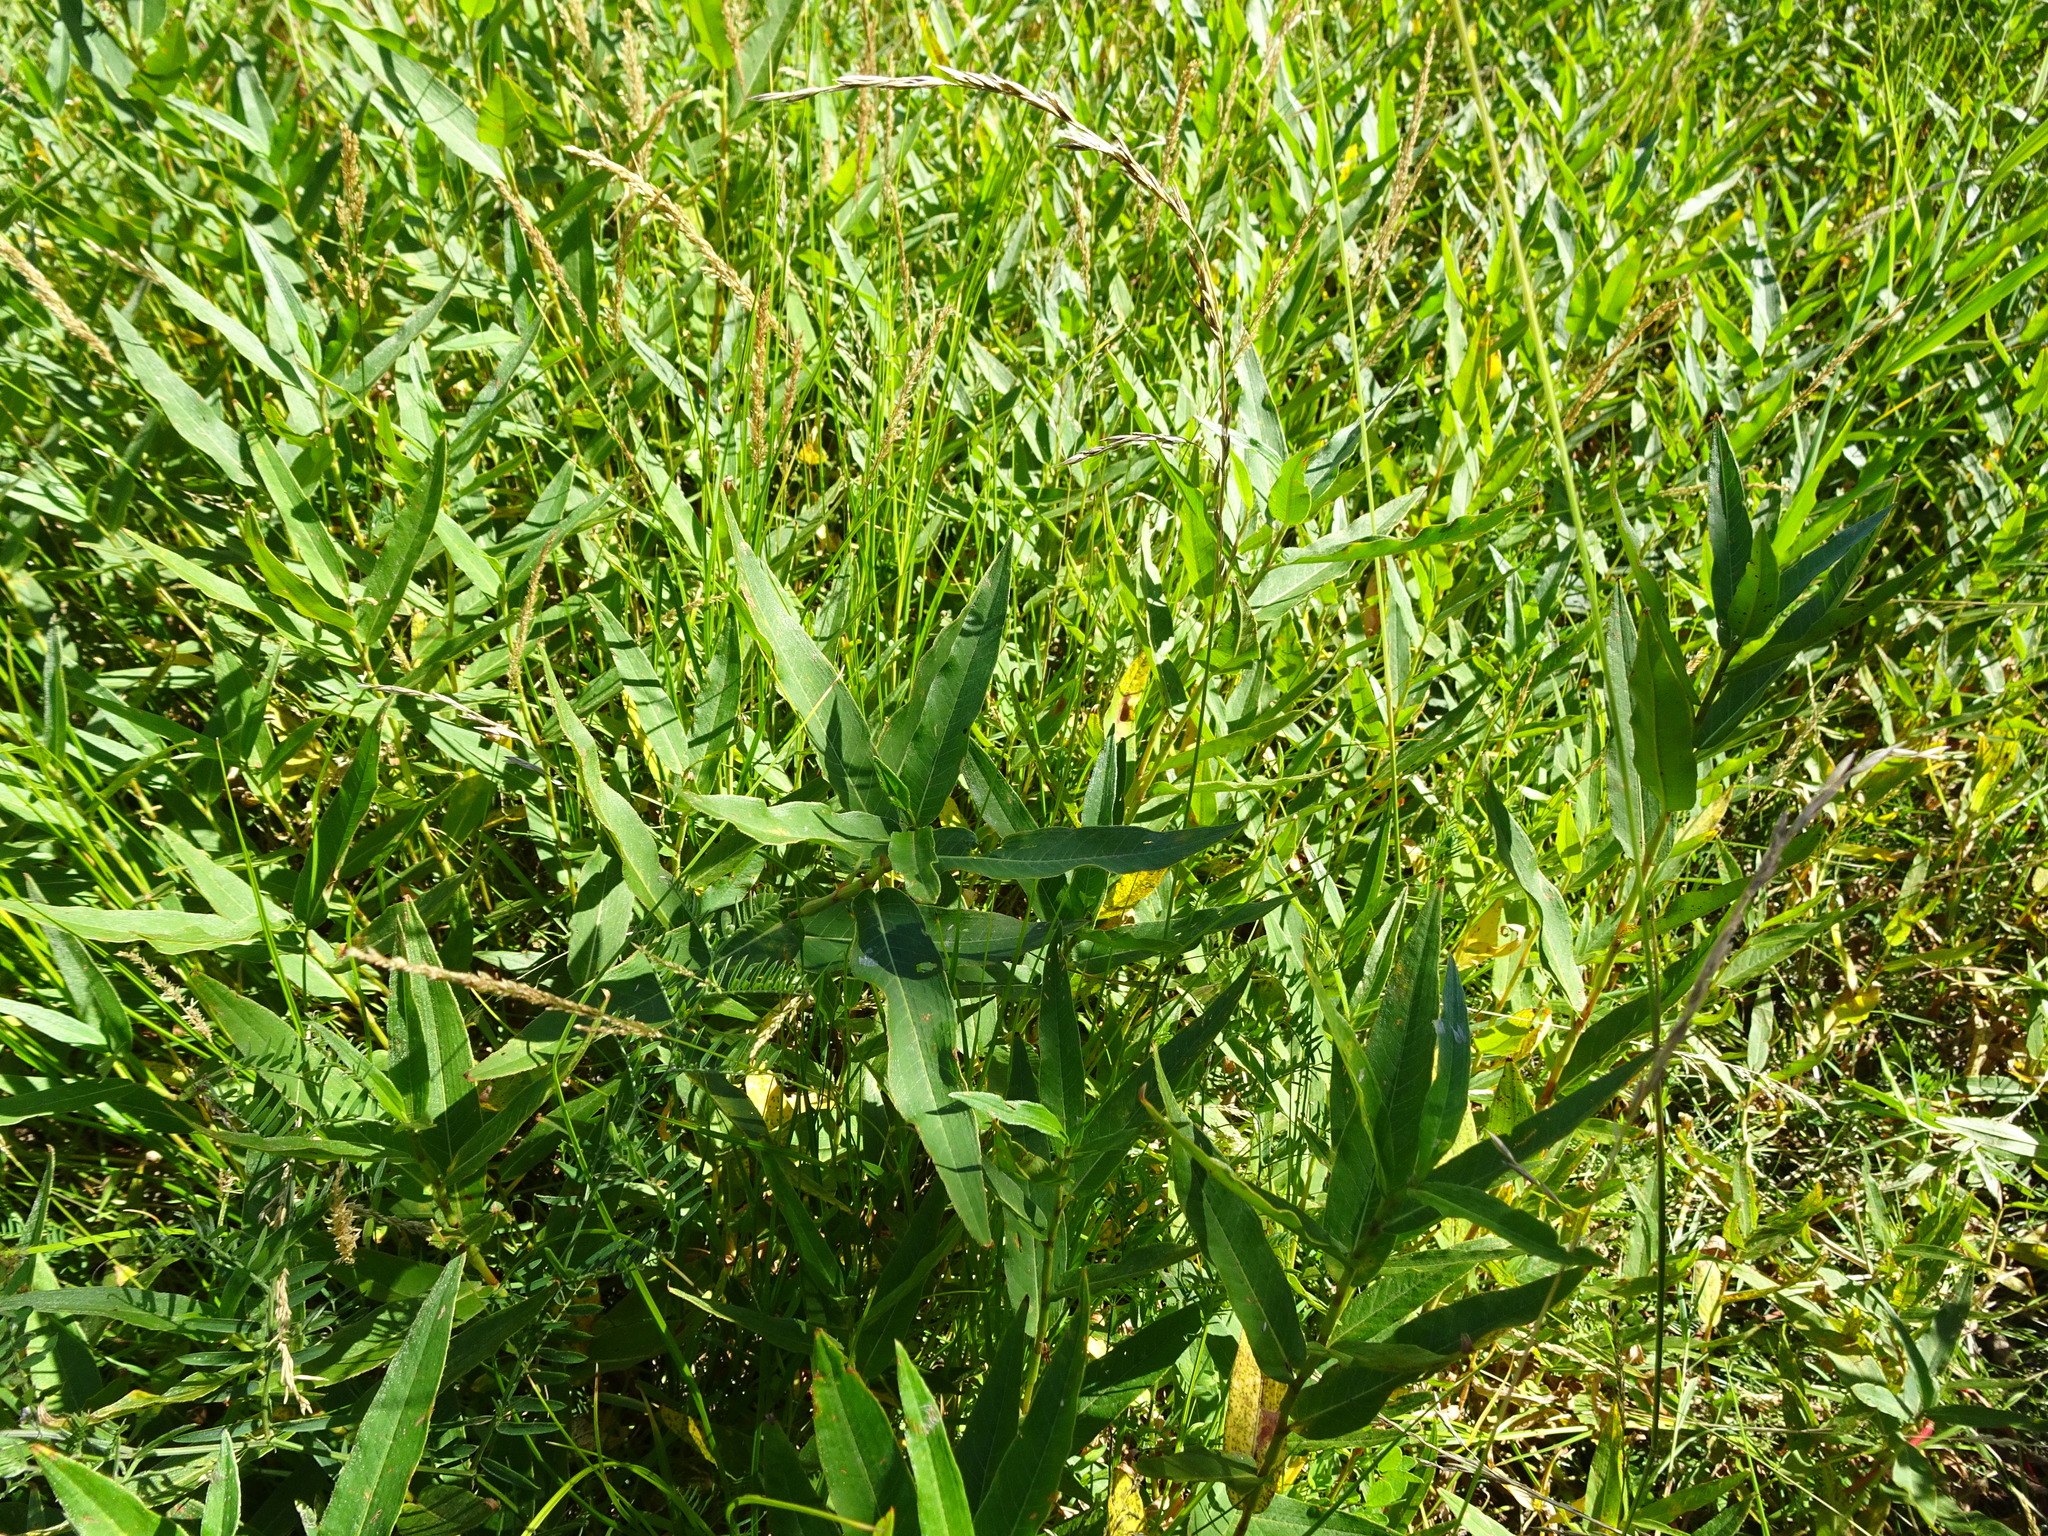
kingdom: Plantae
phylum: Tracheophyta
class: Magnoliopsida
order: Caryophyllales
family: Polygonaceae
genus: Persicaria
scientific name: Persicaria amphibia
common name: Amphibious bistort
